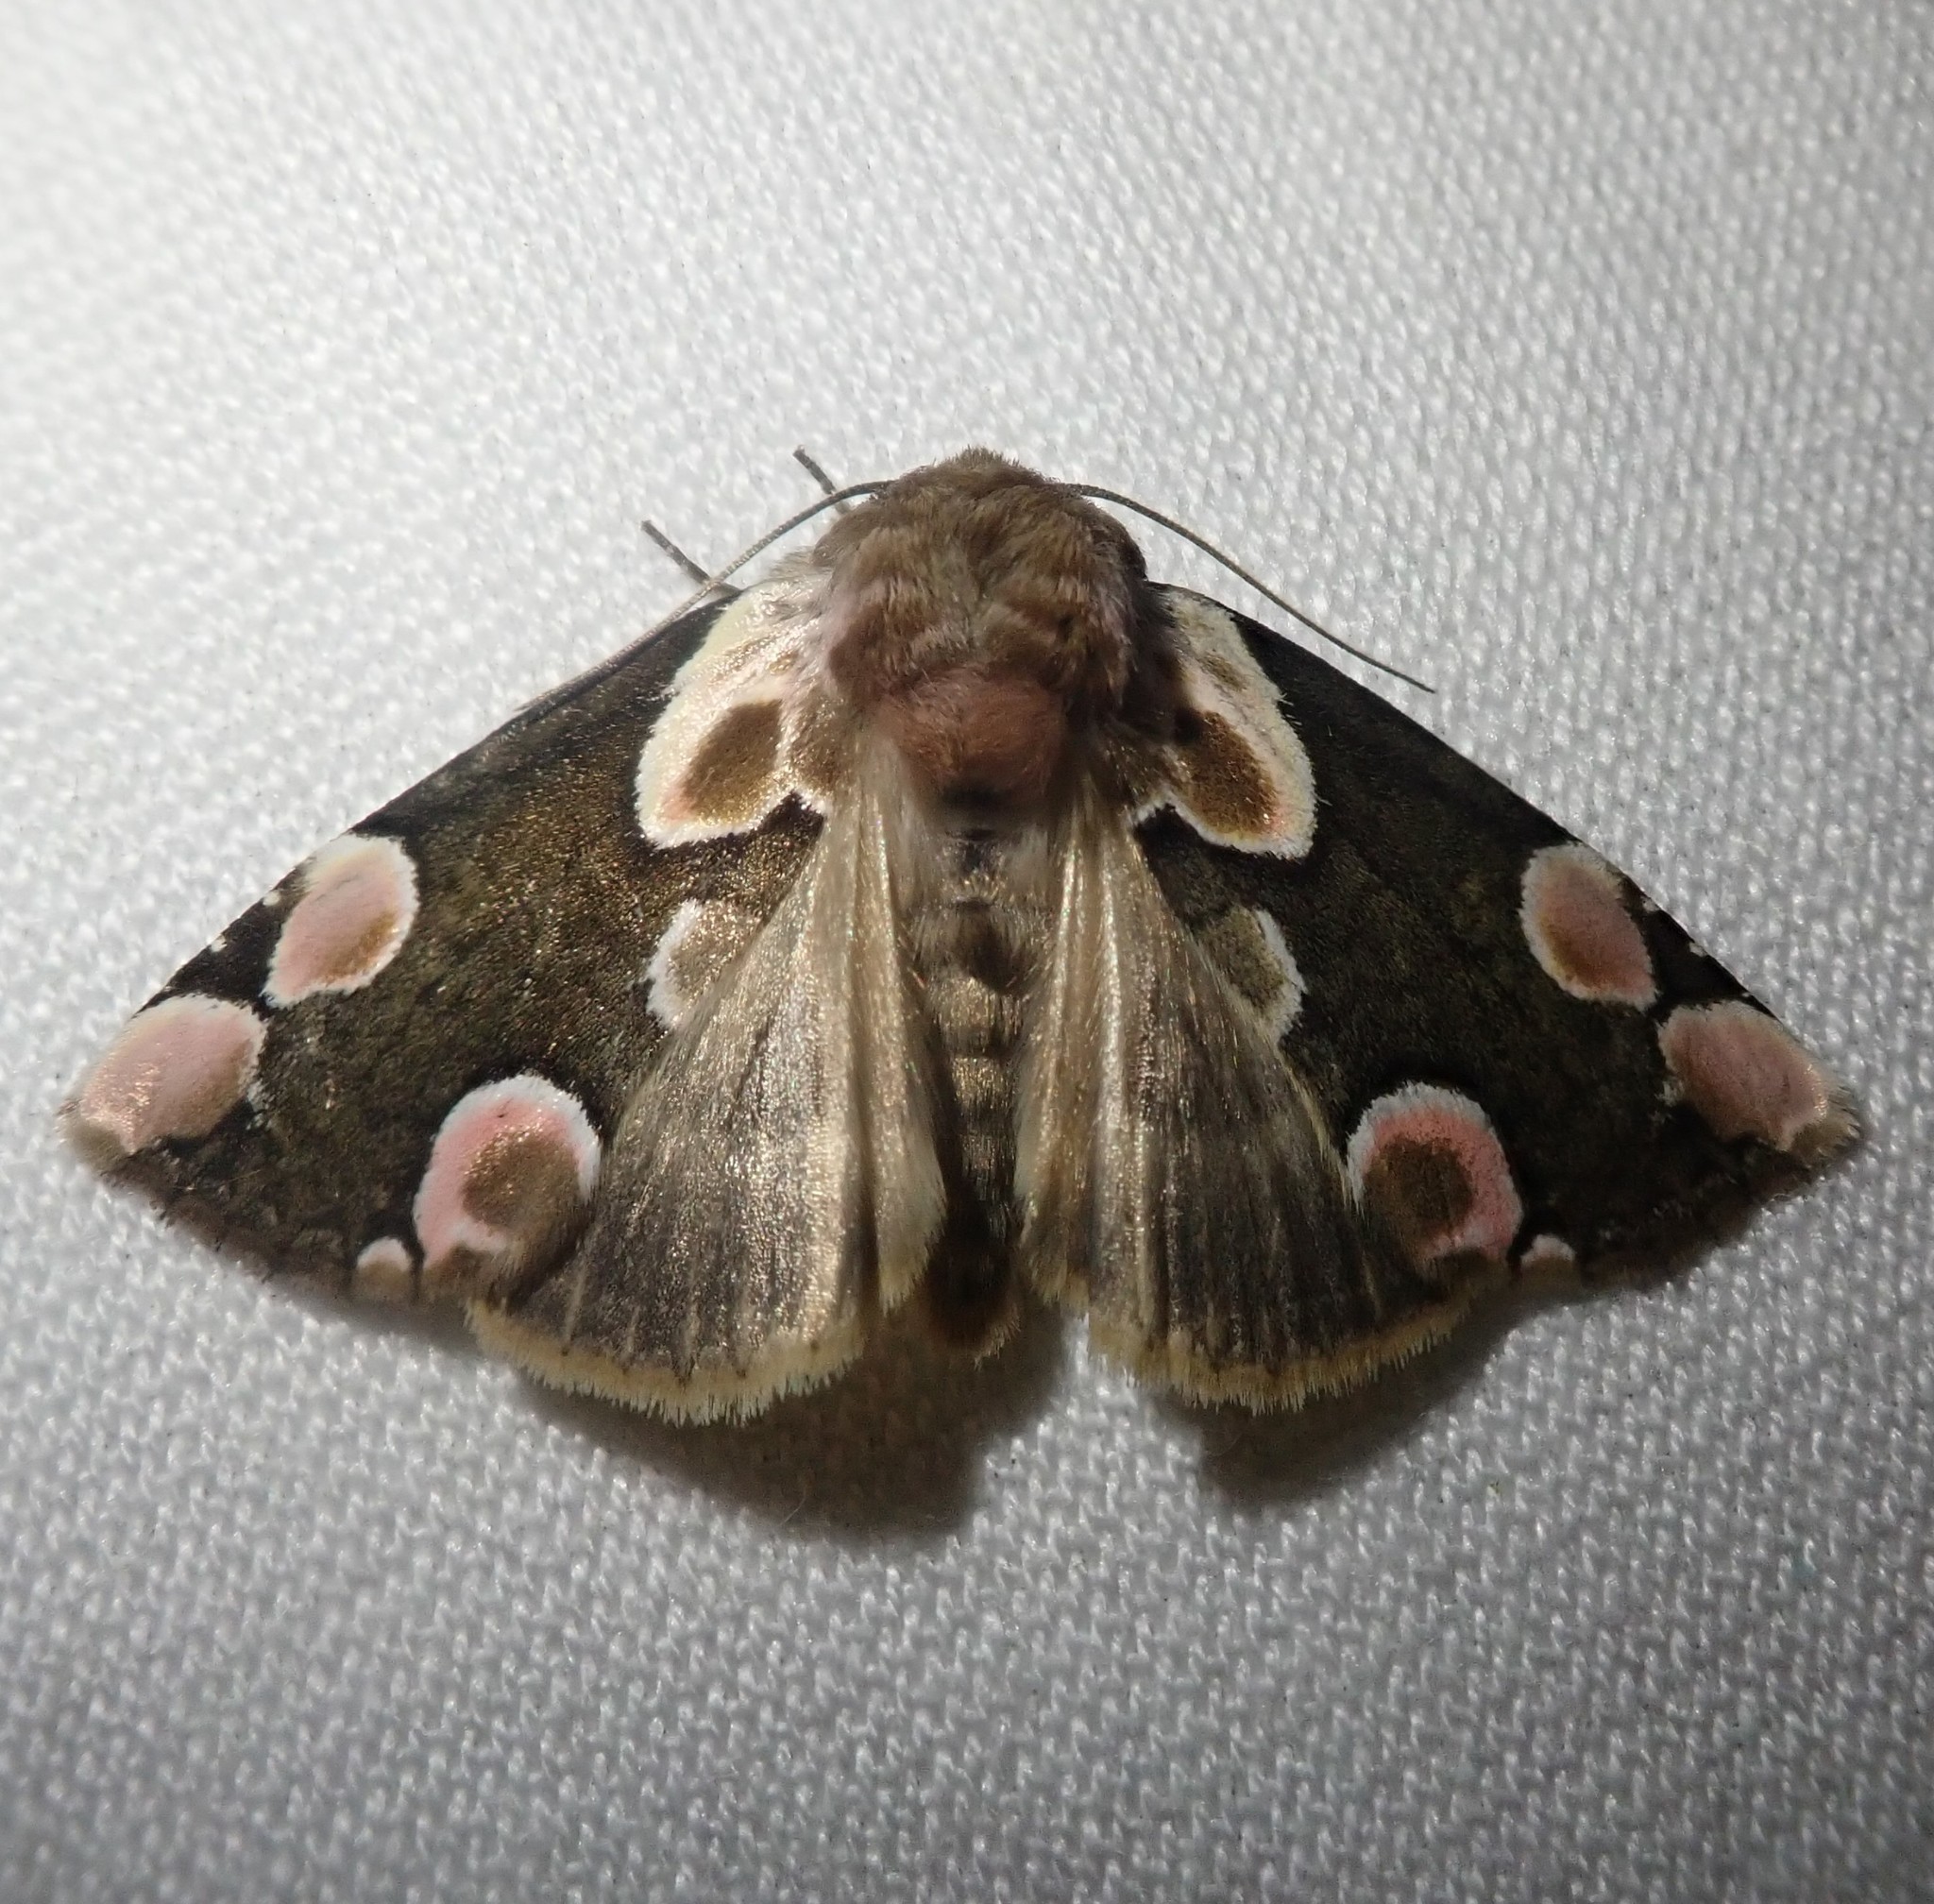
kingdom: Animalia
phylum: Arthropoda
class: Insecta
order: Lepidoptera
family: Drepanidae
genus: Thyatira
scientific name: Thyatira batis
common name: Peach blossom
